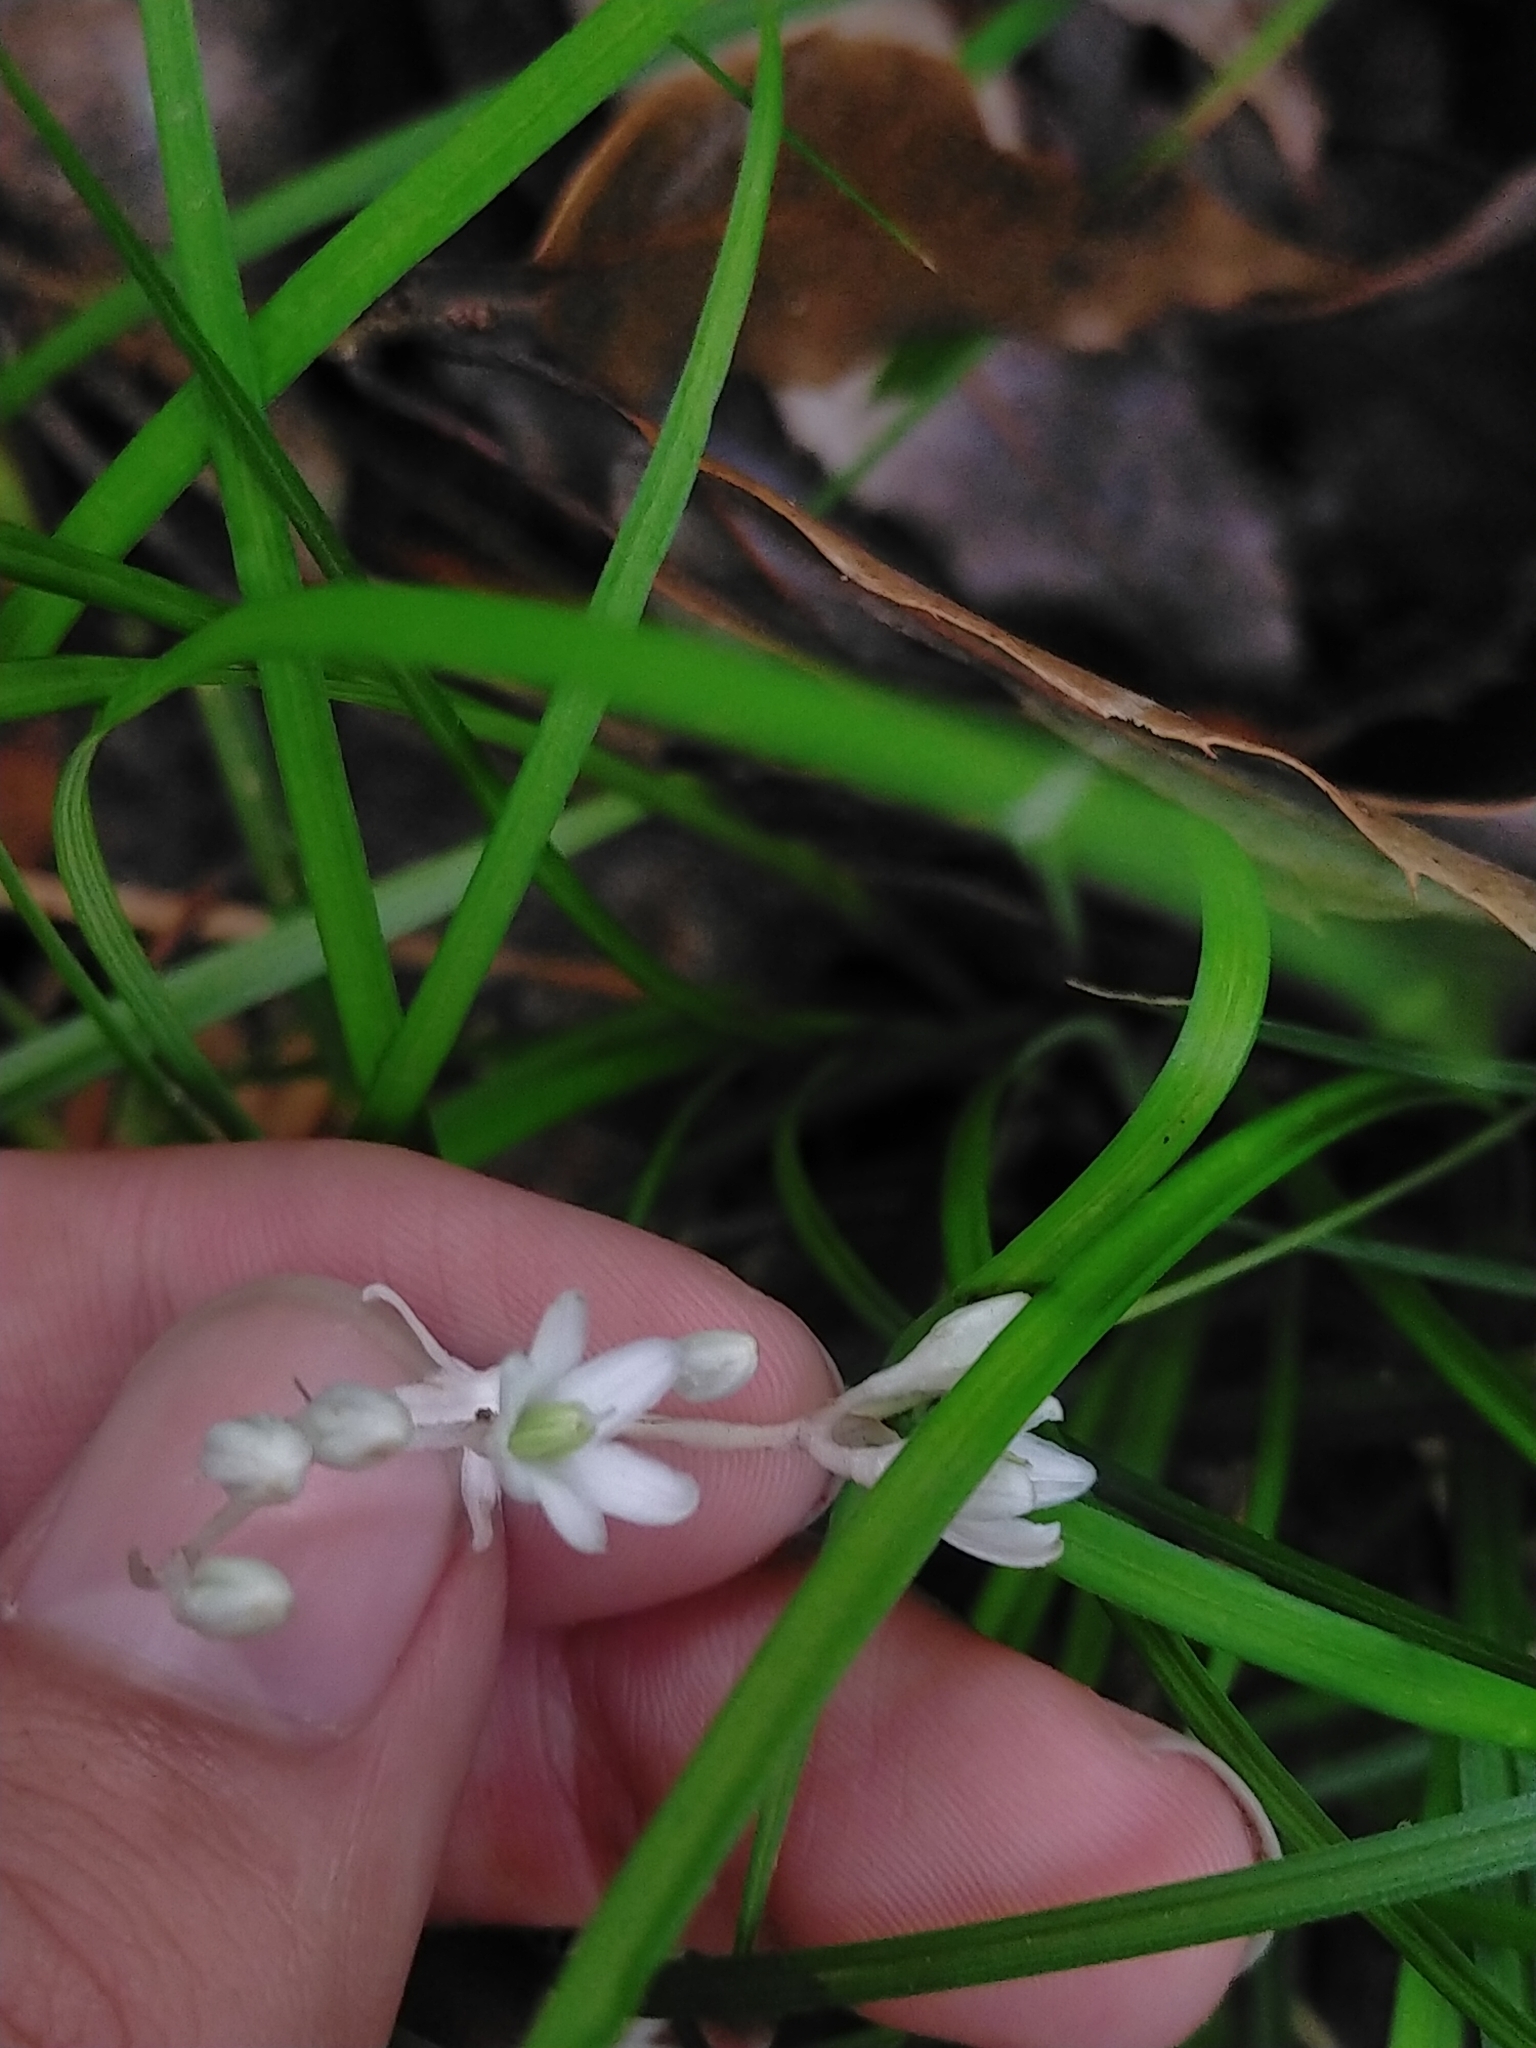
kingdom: Plantae
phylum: Tracheophyta
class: Liliopsida
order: Asparagales
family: Asparagaceae
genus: Ophiopogon
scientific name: Ophiopogon intermedius
